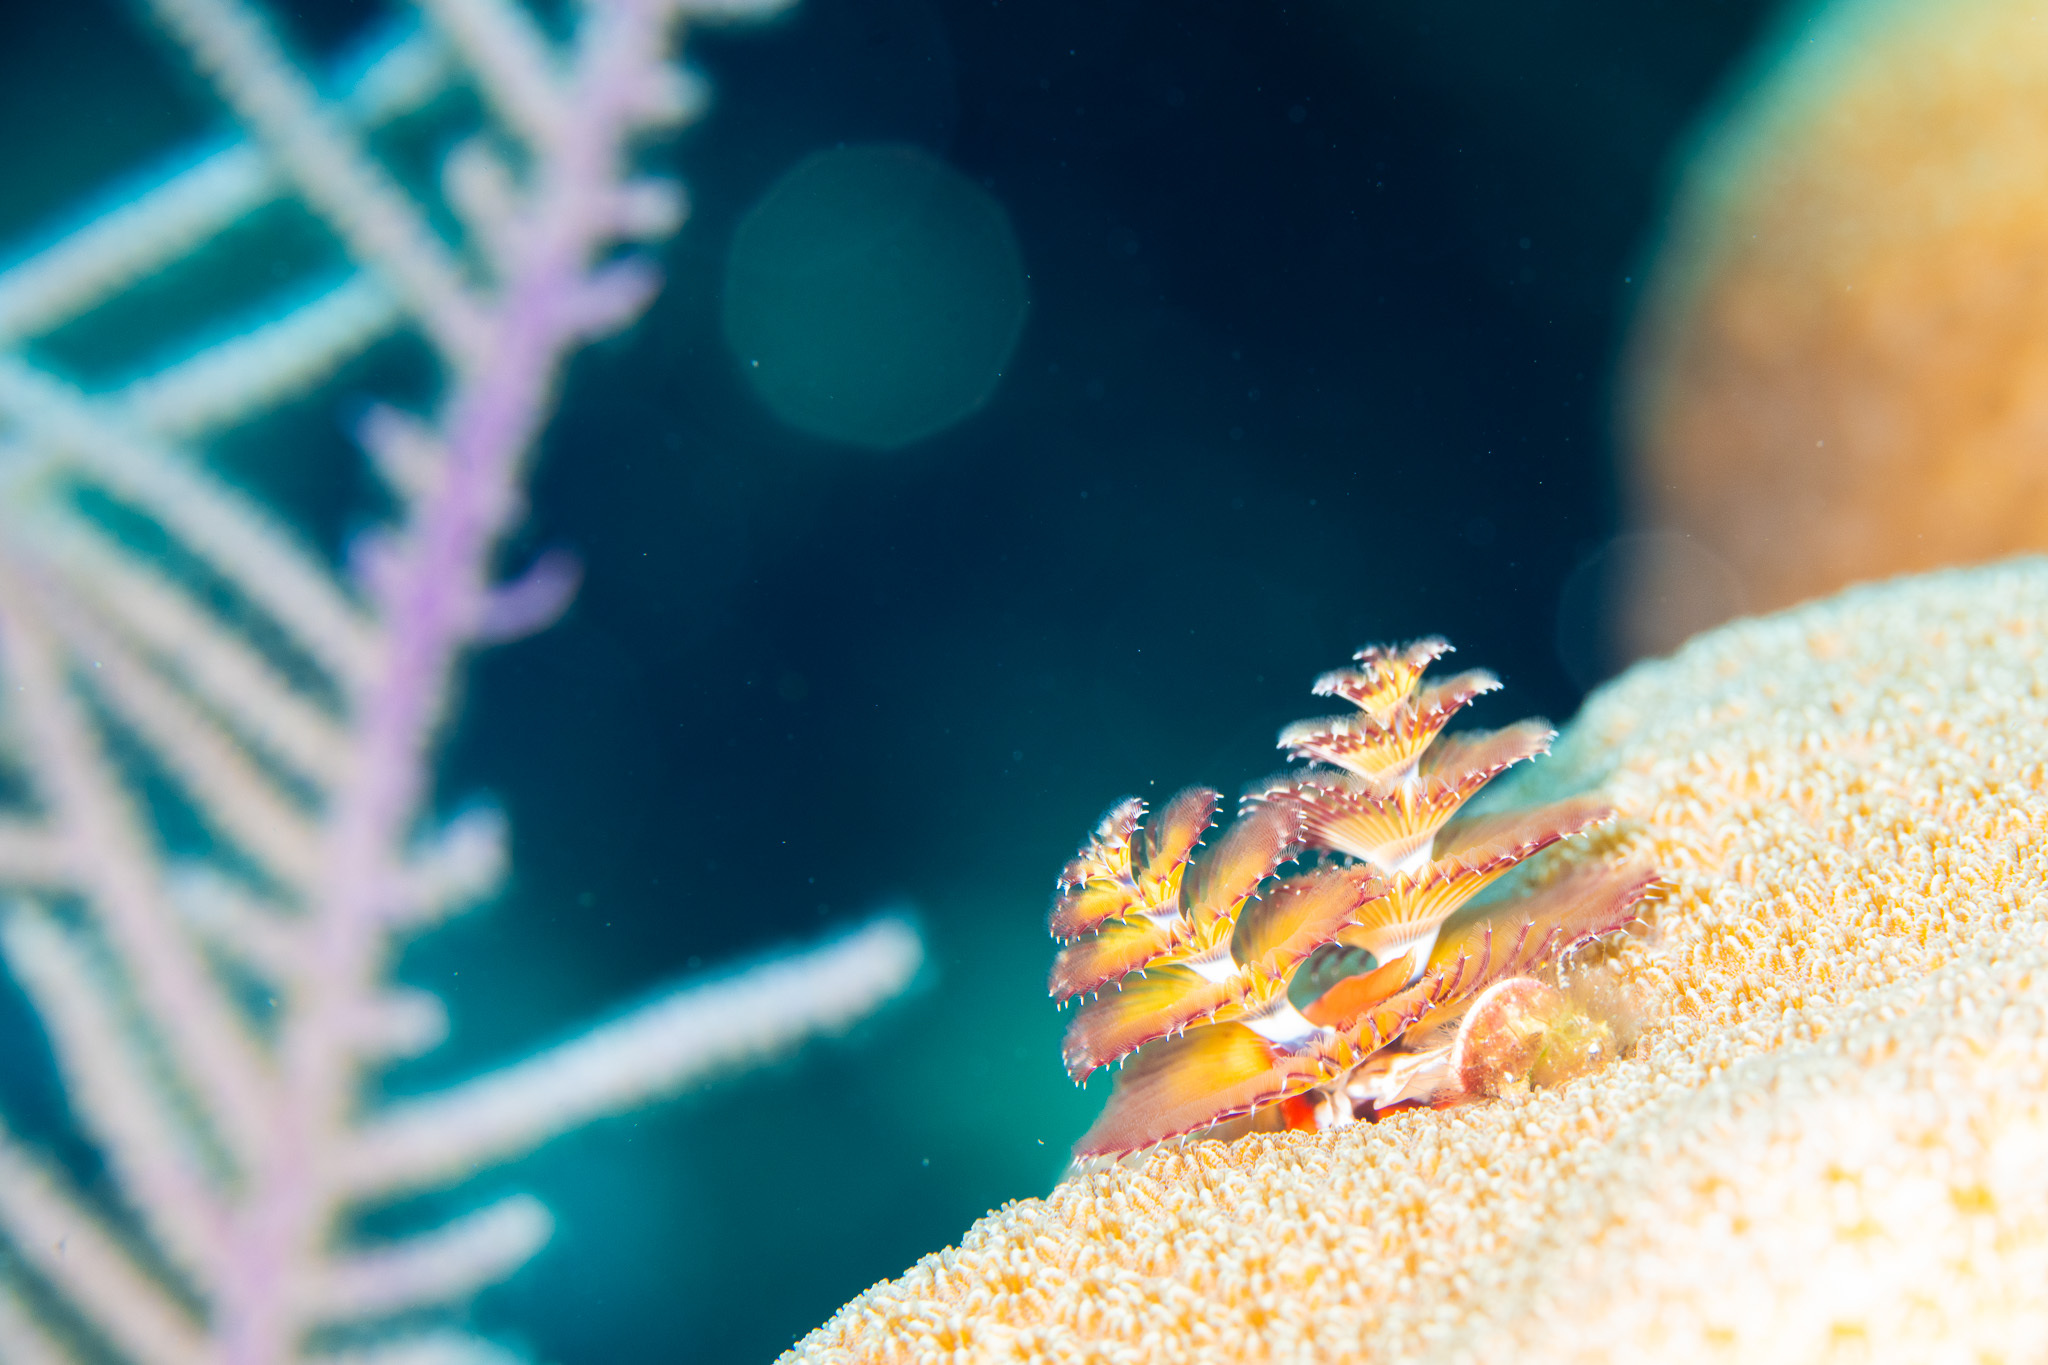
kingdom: Animalia
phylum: Annelida
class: Polychaeta
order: Sabellida
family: Serpulidae
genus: Spirobranchus
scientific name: Spirobranchus giganteus
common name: Christmas tree worm
